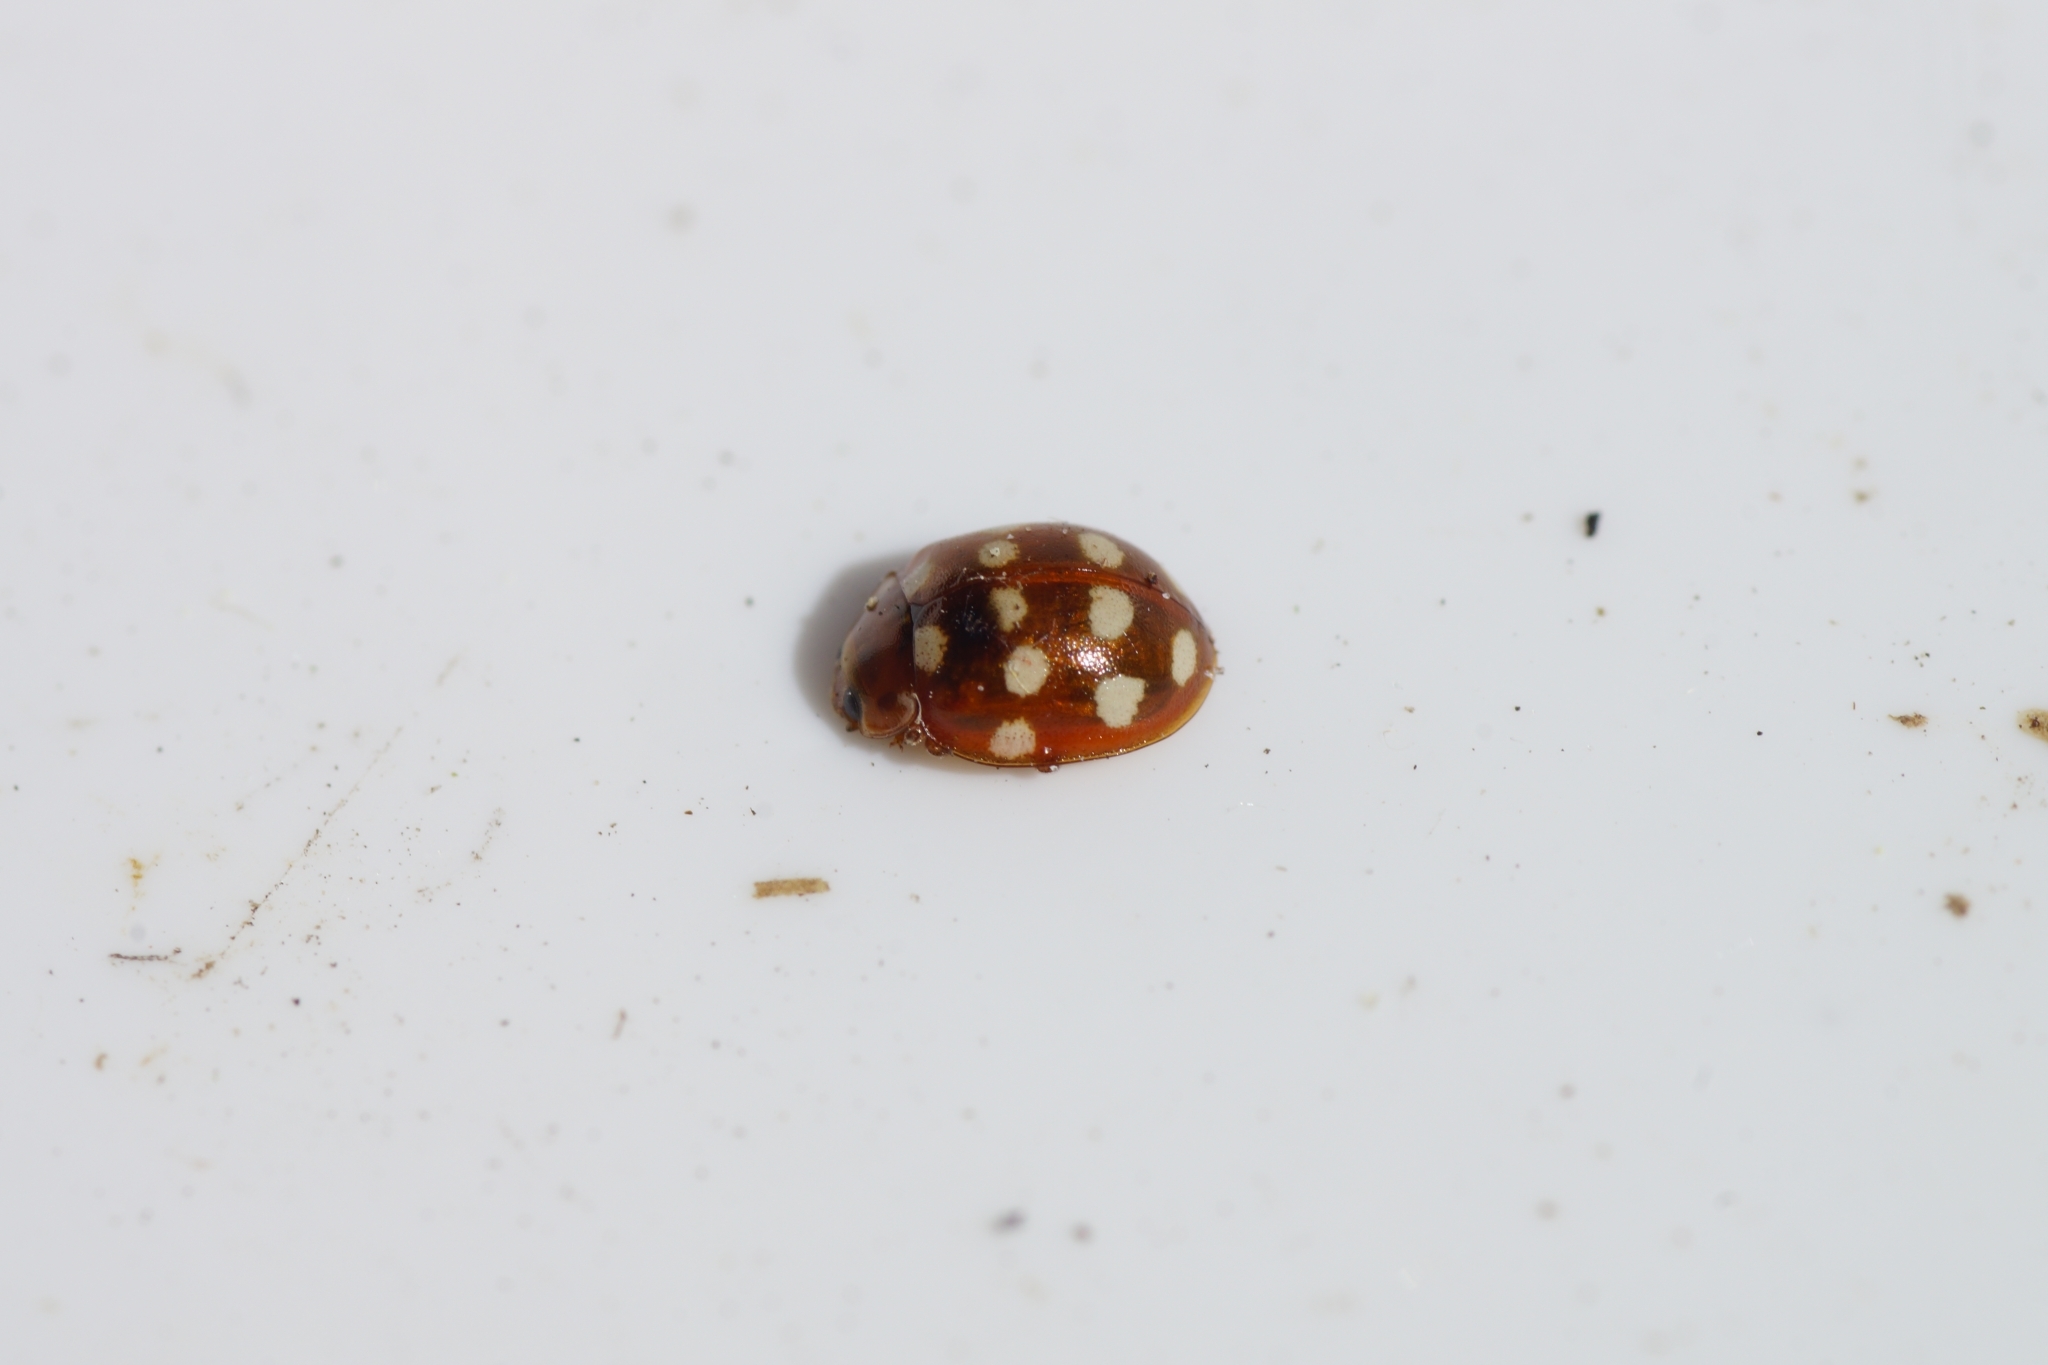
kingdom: Animalia
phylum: Arthropoda
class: Insecta
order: Coleoptera
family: Coccinellidae
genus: Calvia
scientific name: Calvia quatuordecimguttata
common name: Cream-spot ladybird
